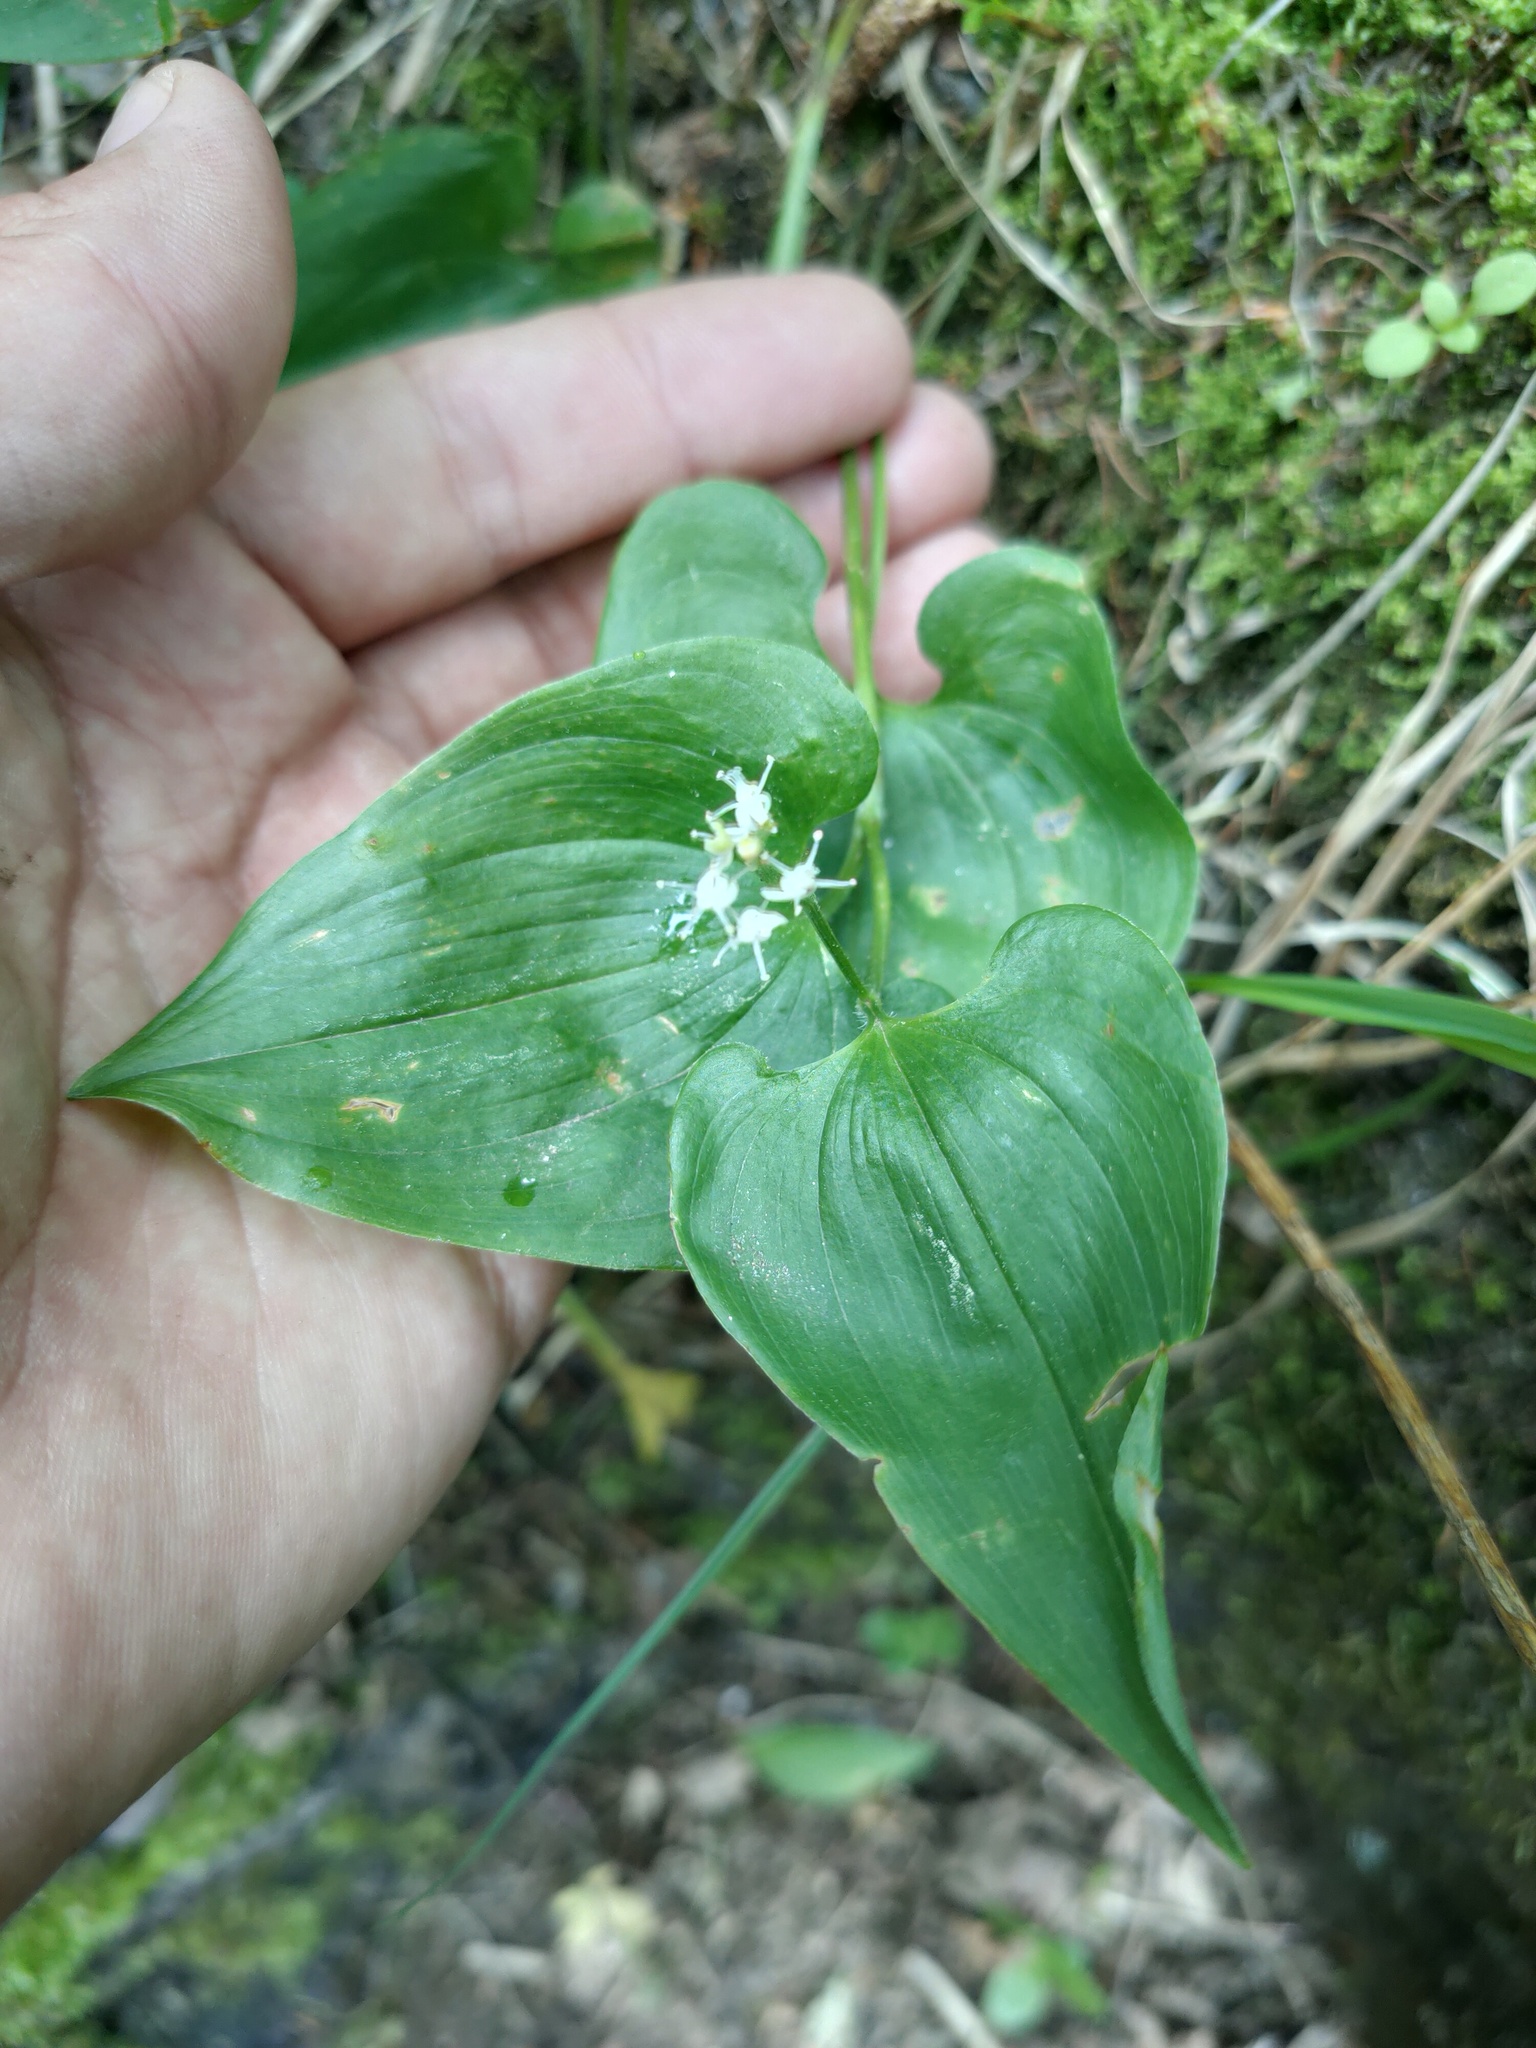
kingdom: Plantae
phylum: Tracheophyta
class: Liliopsida
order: Asparagales
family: Asparagaceae
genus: Maianthemum
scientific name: Maianthemum bifolium
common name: May lily
